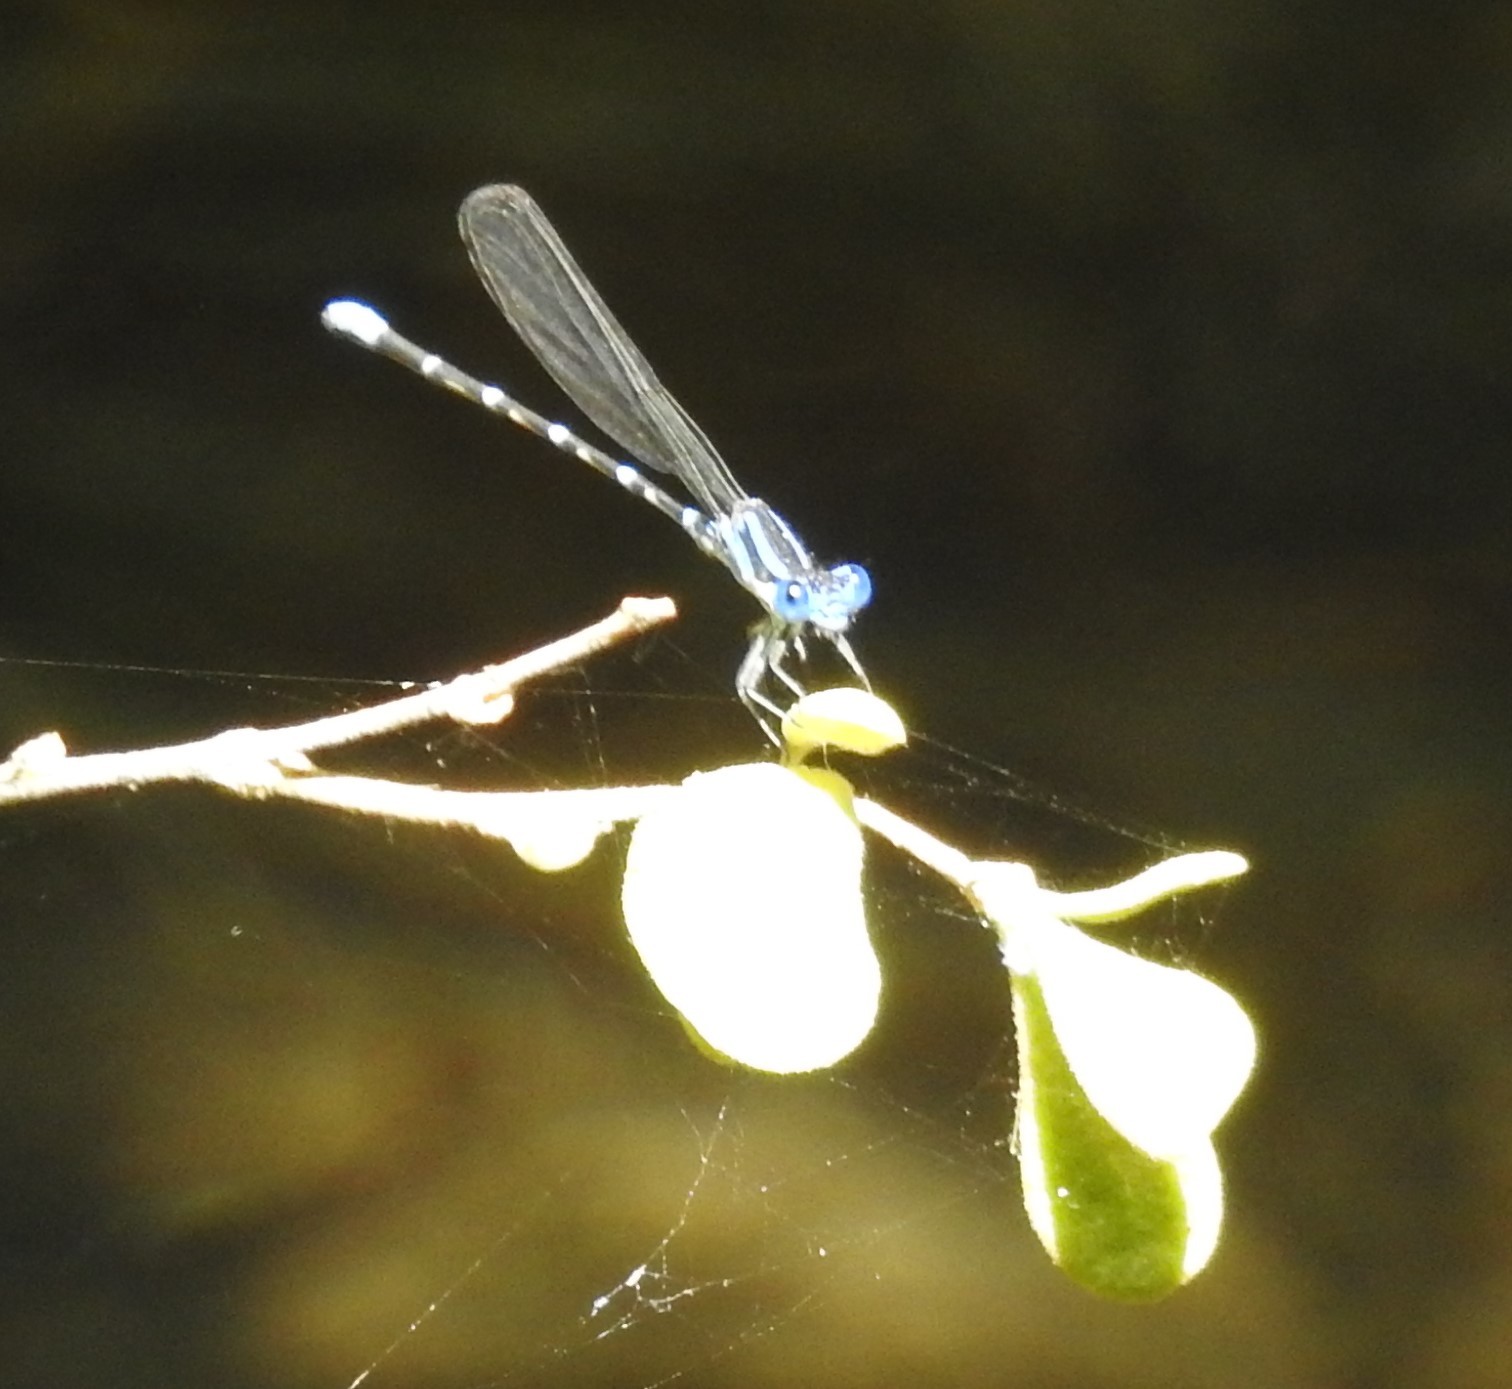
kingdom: Animalia
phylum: Arthropoda
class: Insecta
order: Odonata
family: Coenagrionidae
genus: Argia
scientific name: Argia sedula
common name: Blue-ringed dancer
